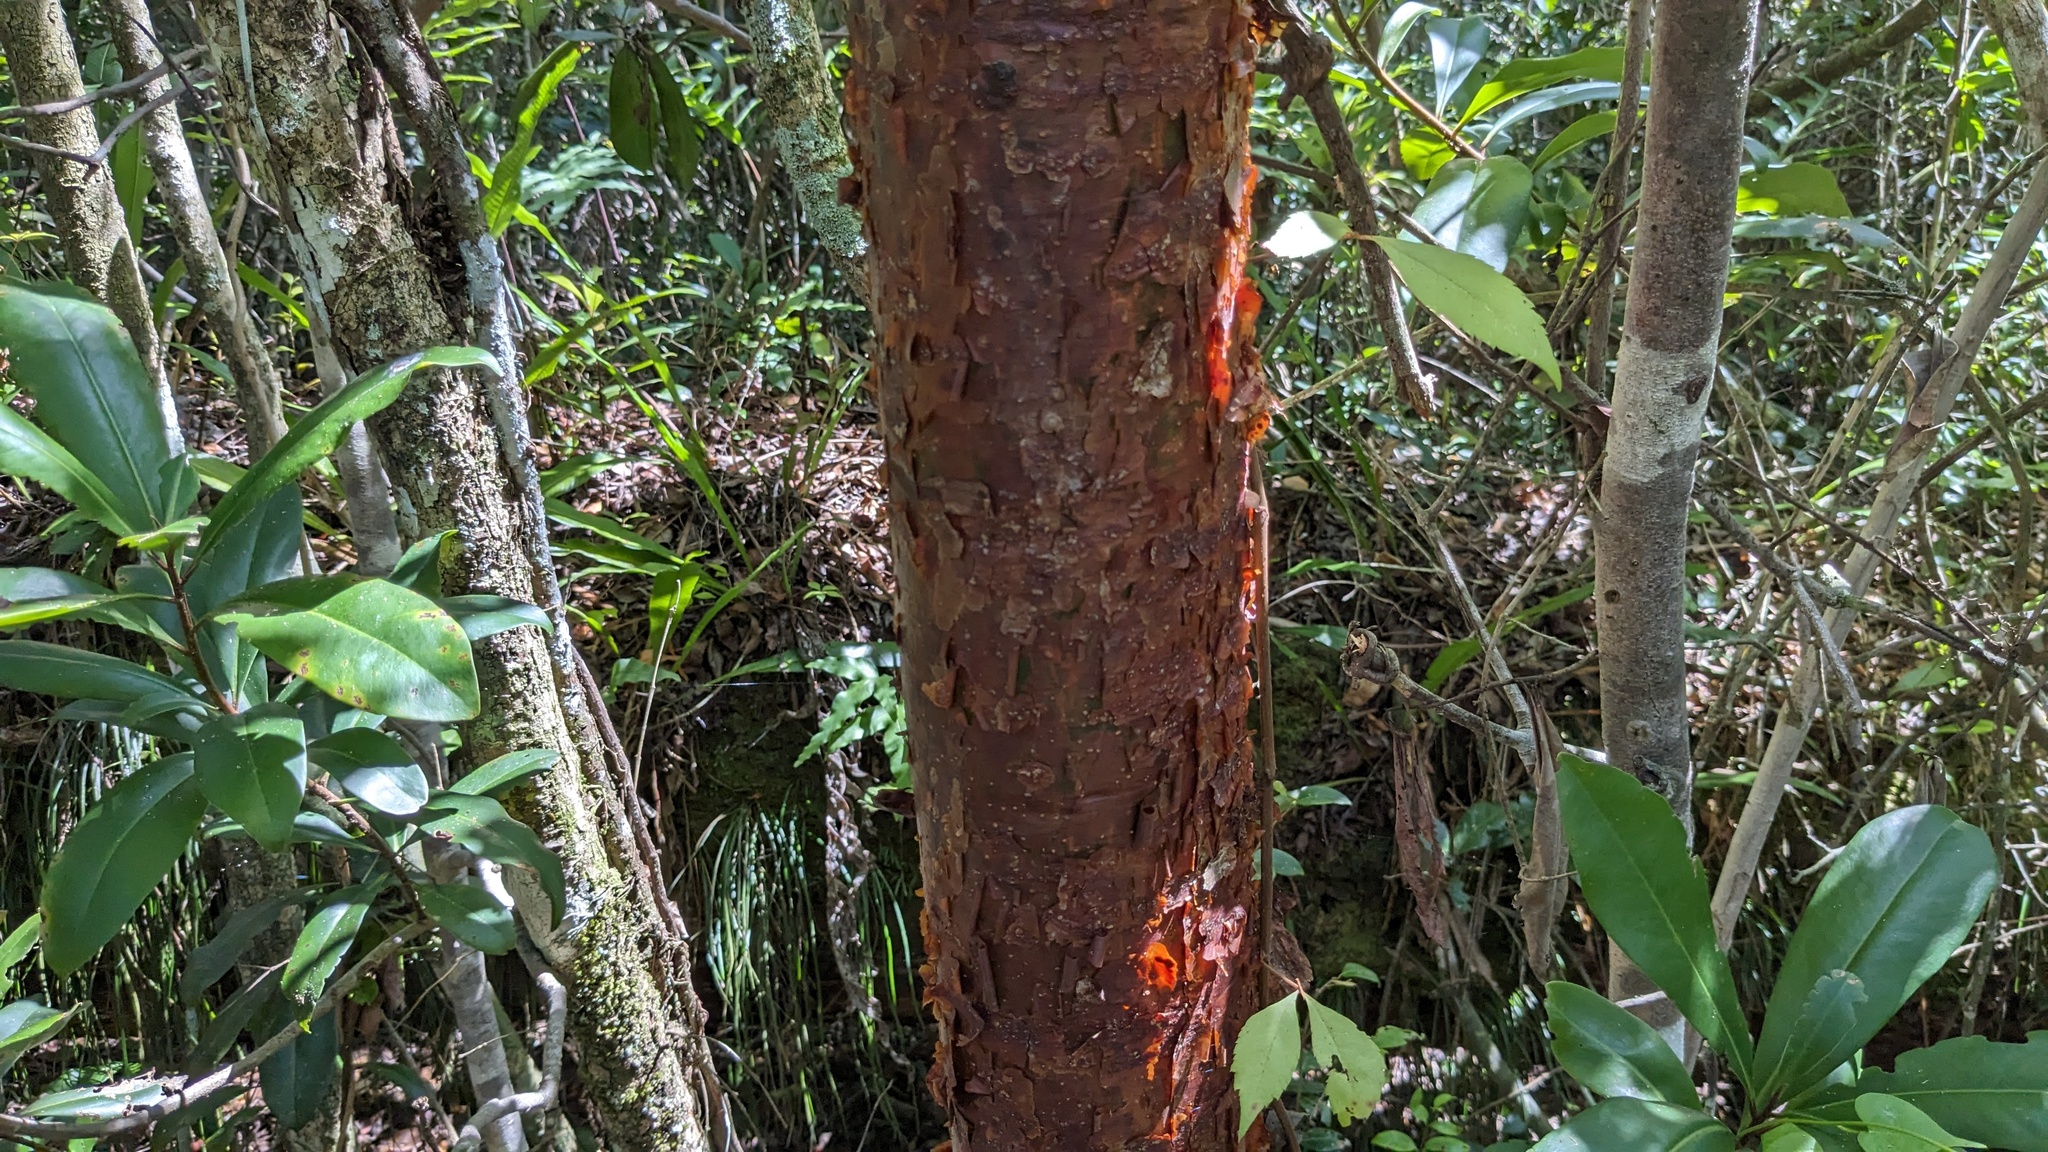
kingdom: Plantae
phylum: Tracheophyta
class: Magnoliopsida
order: Sapindales
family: Burseraceae
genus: Bursera
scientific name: Bursera simaruba
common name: Turpentine tree
